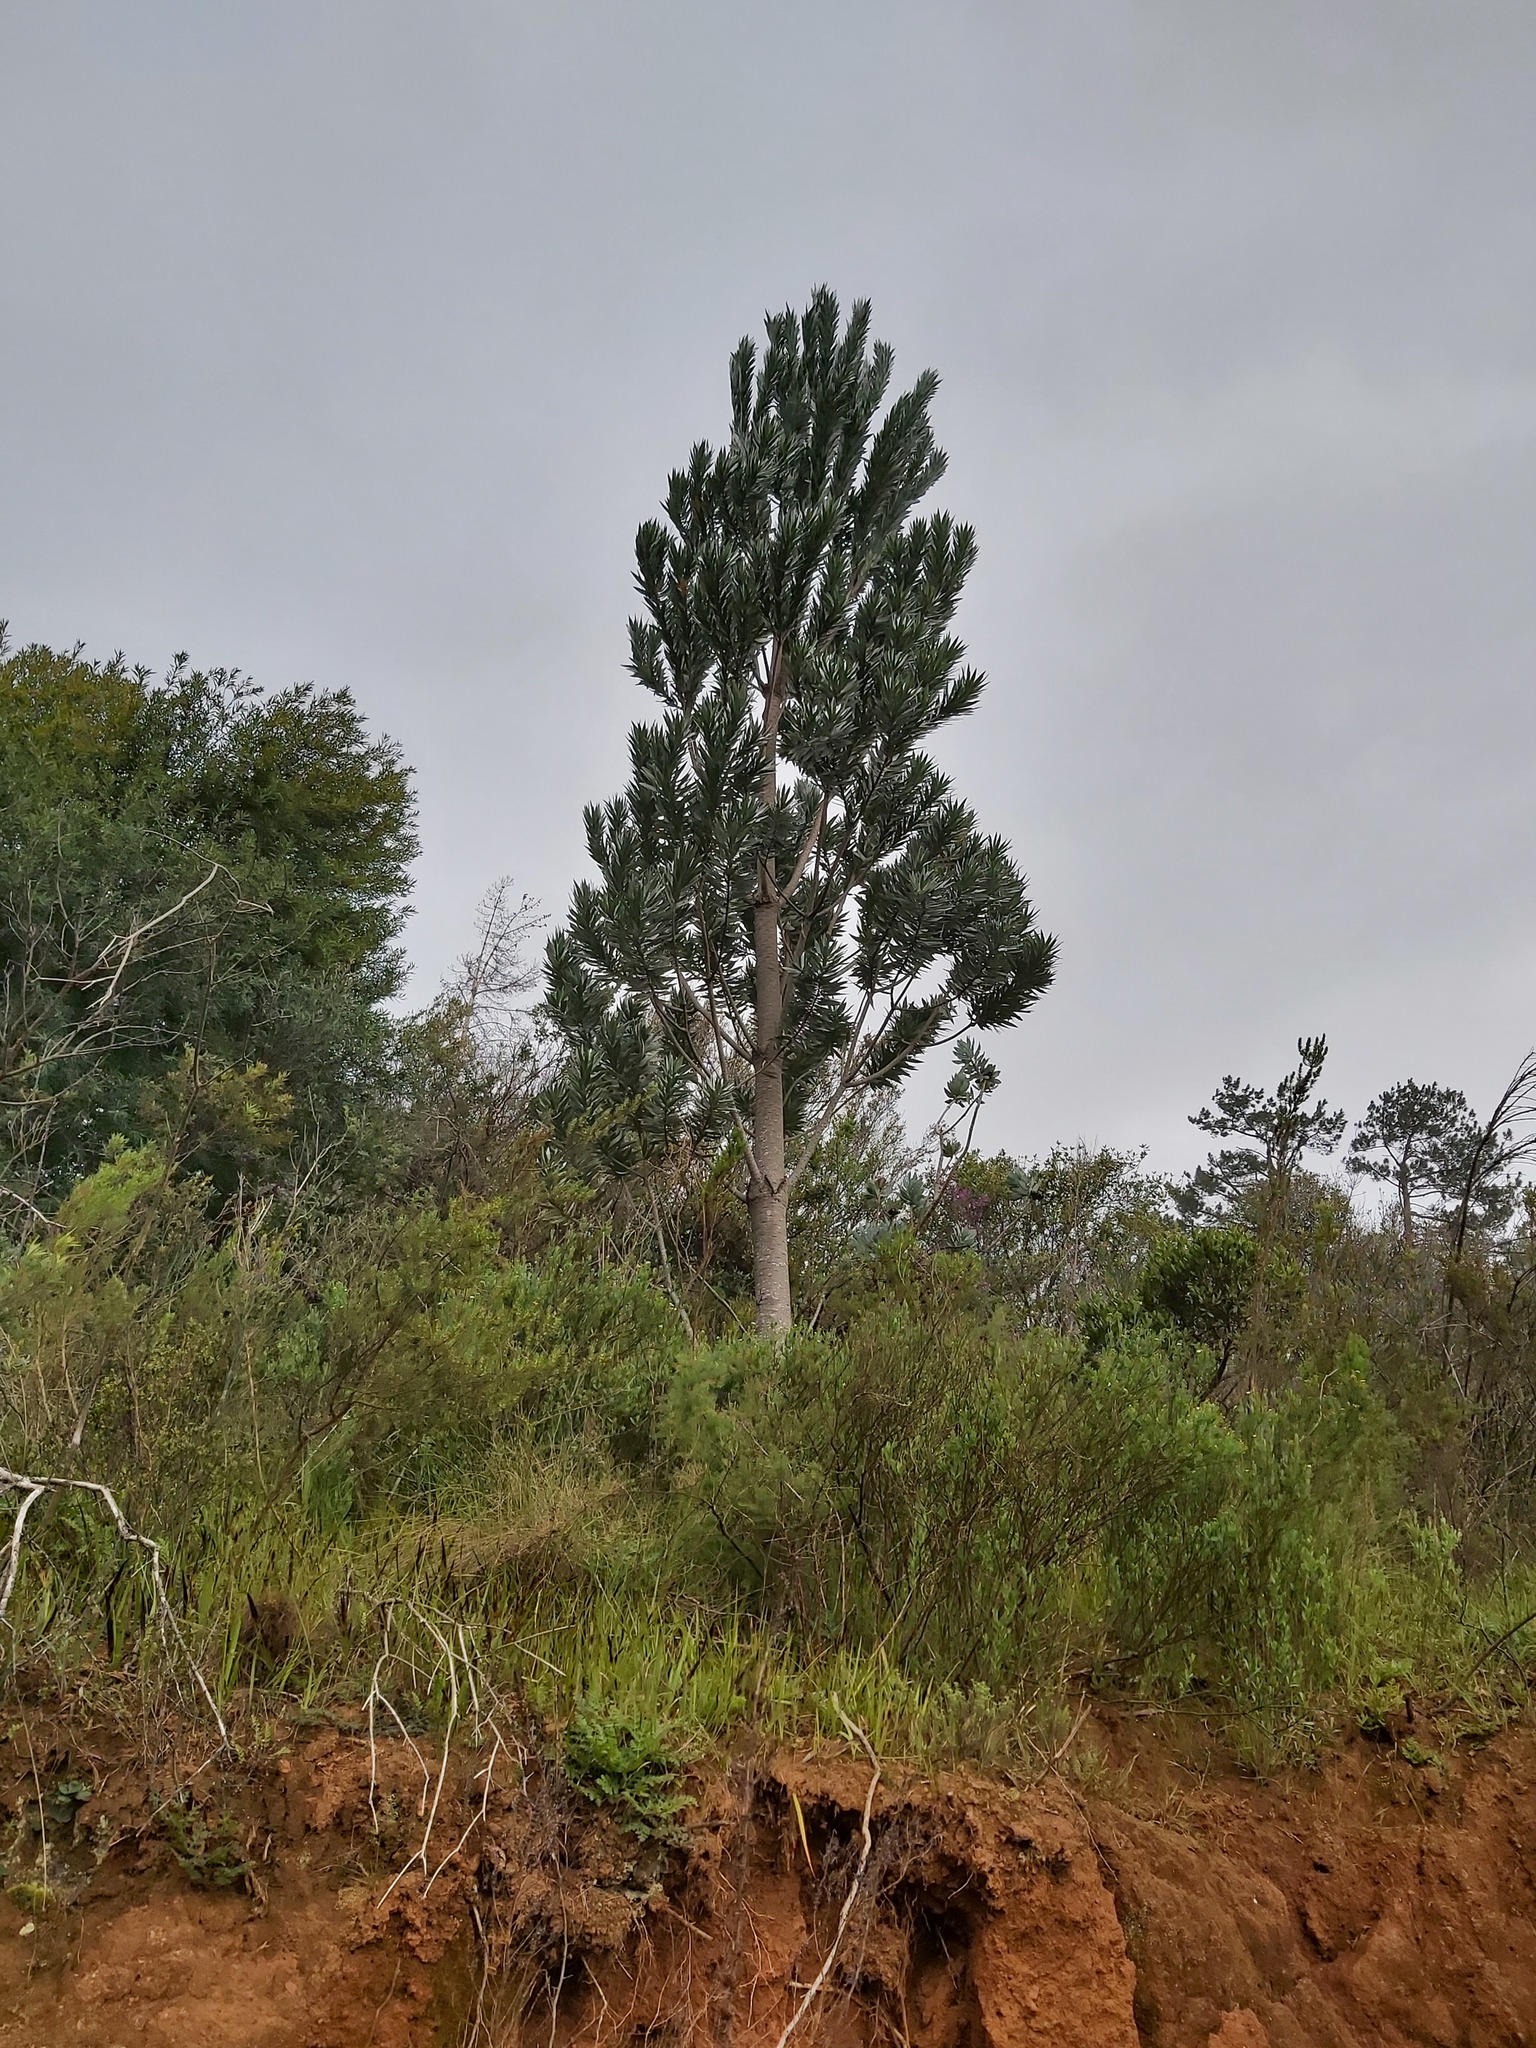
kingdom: Plantae
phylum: Tracheophyta
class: Magnoliopsida
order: Proteales
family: Proteaceae
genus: Leucadendron
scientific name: Leucadendron argenteum
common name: Cape silver tree
